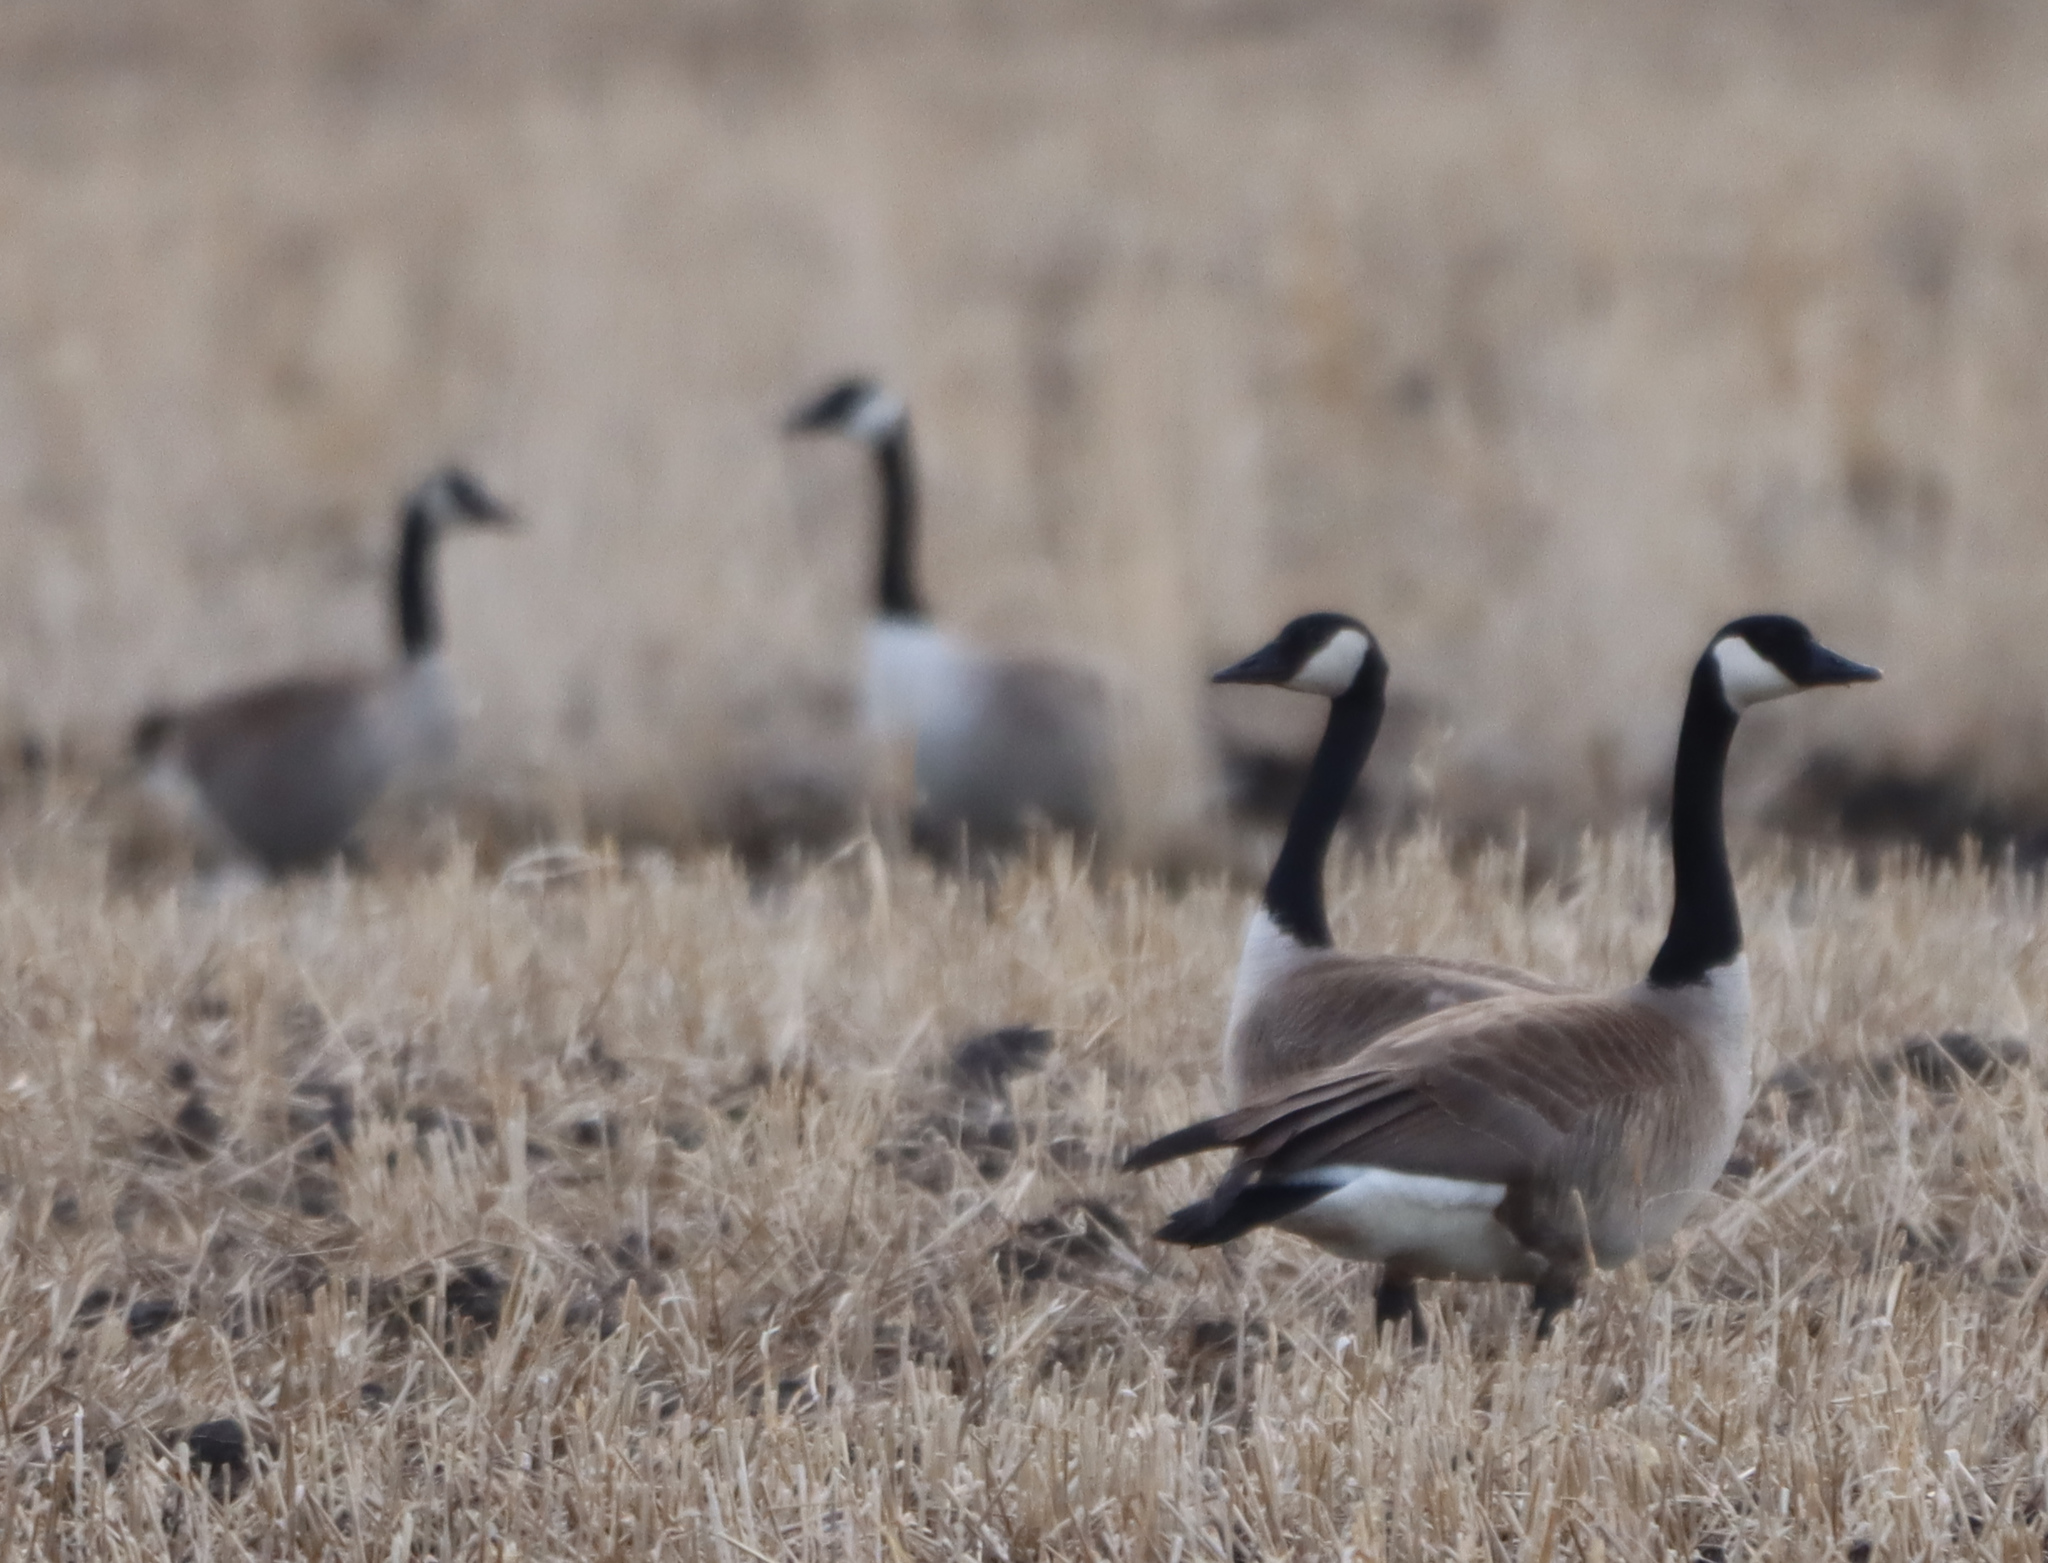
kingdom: Animalia
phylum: Chordata
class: Aves
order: Anseriformes
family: Anatidae
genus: Branta
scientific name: Branta canadensis
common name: Canada goose
